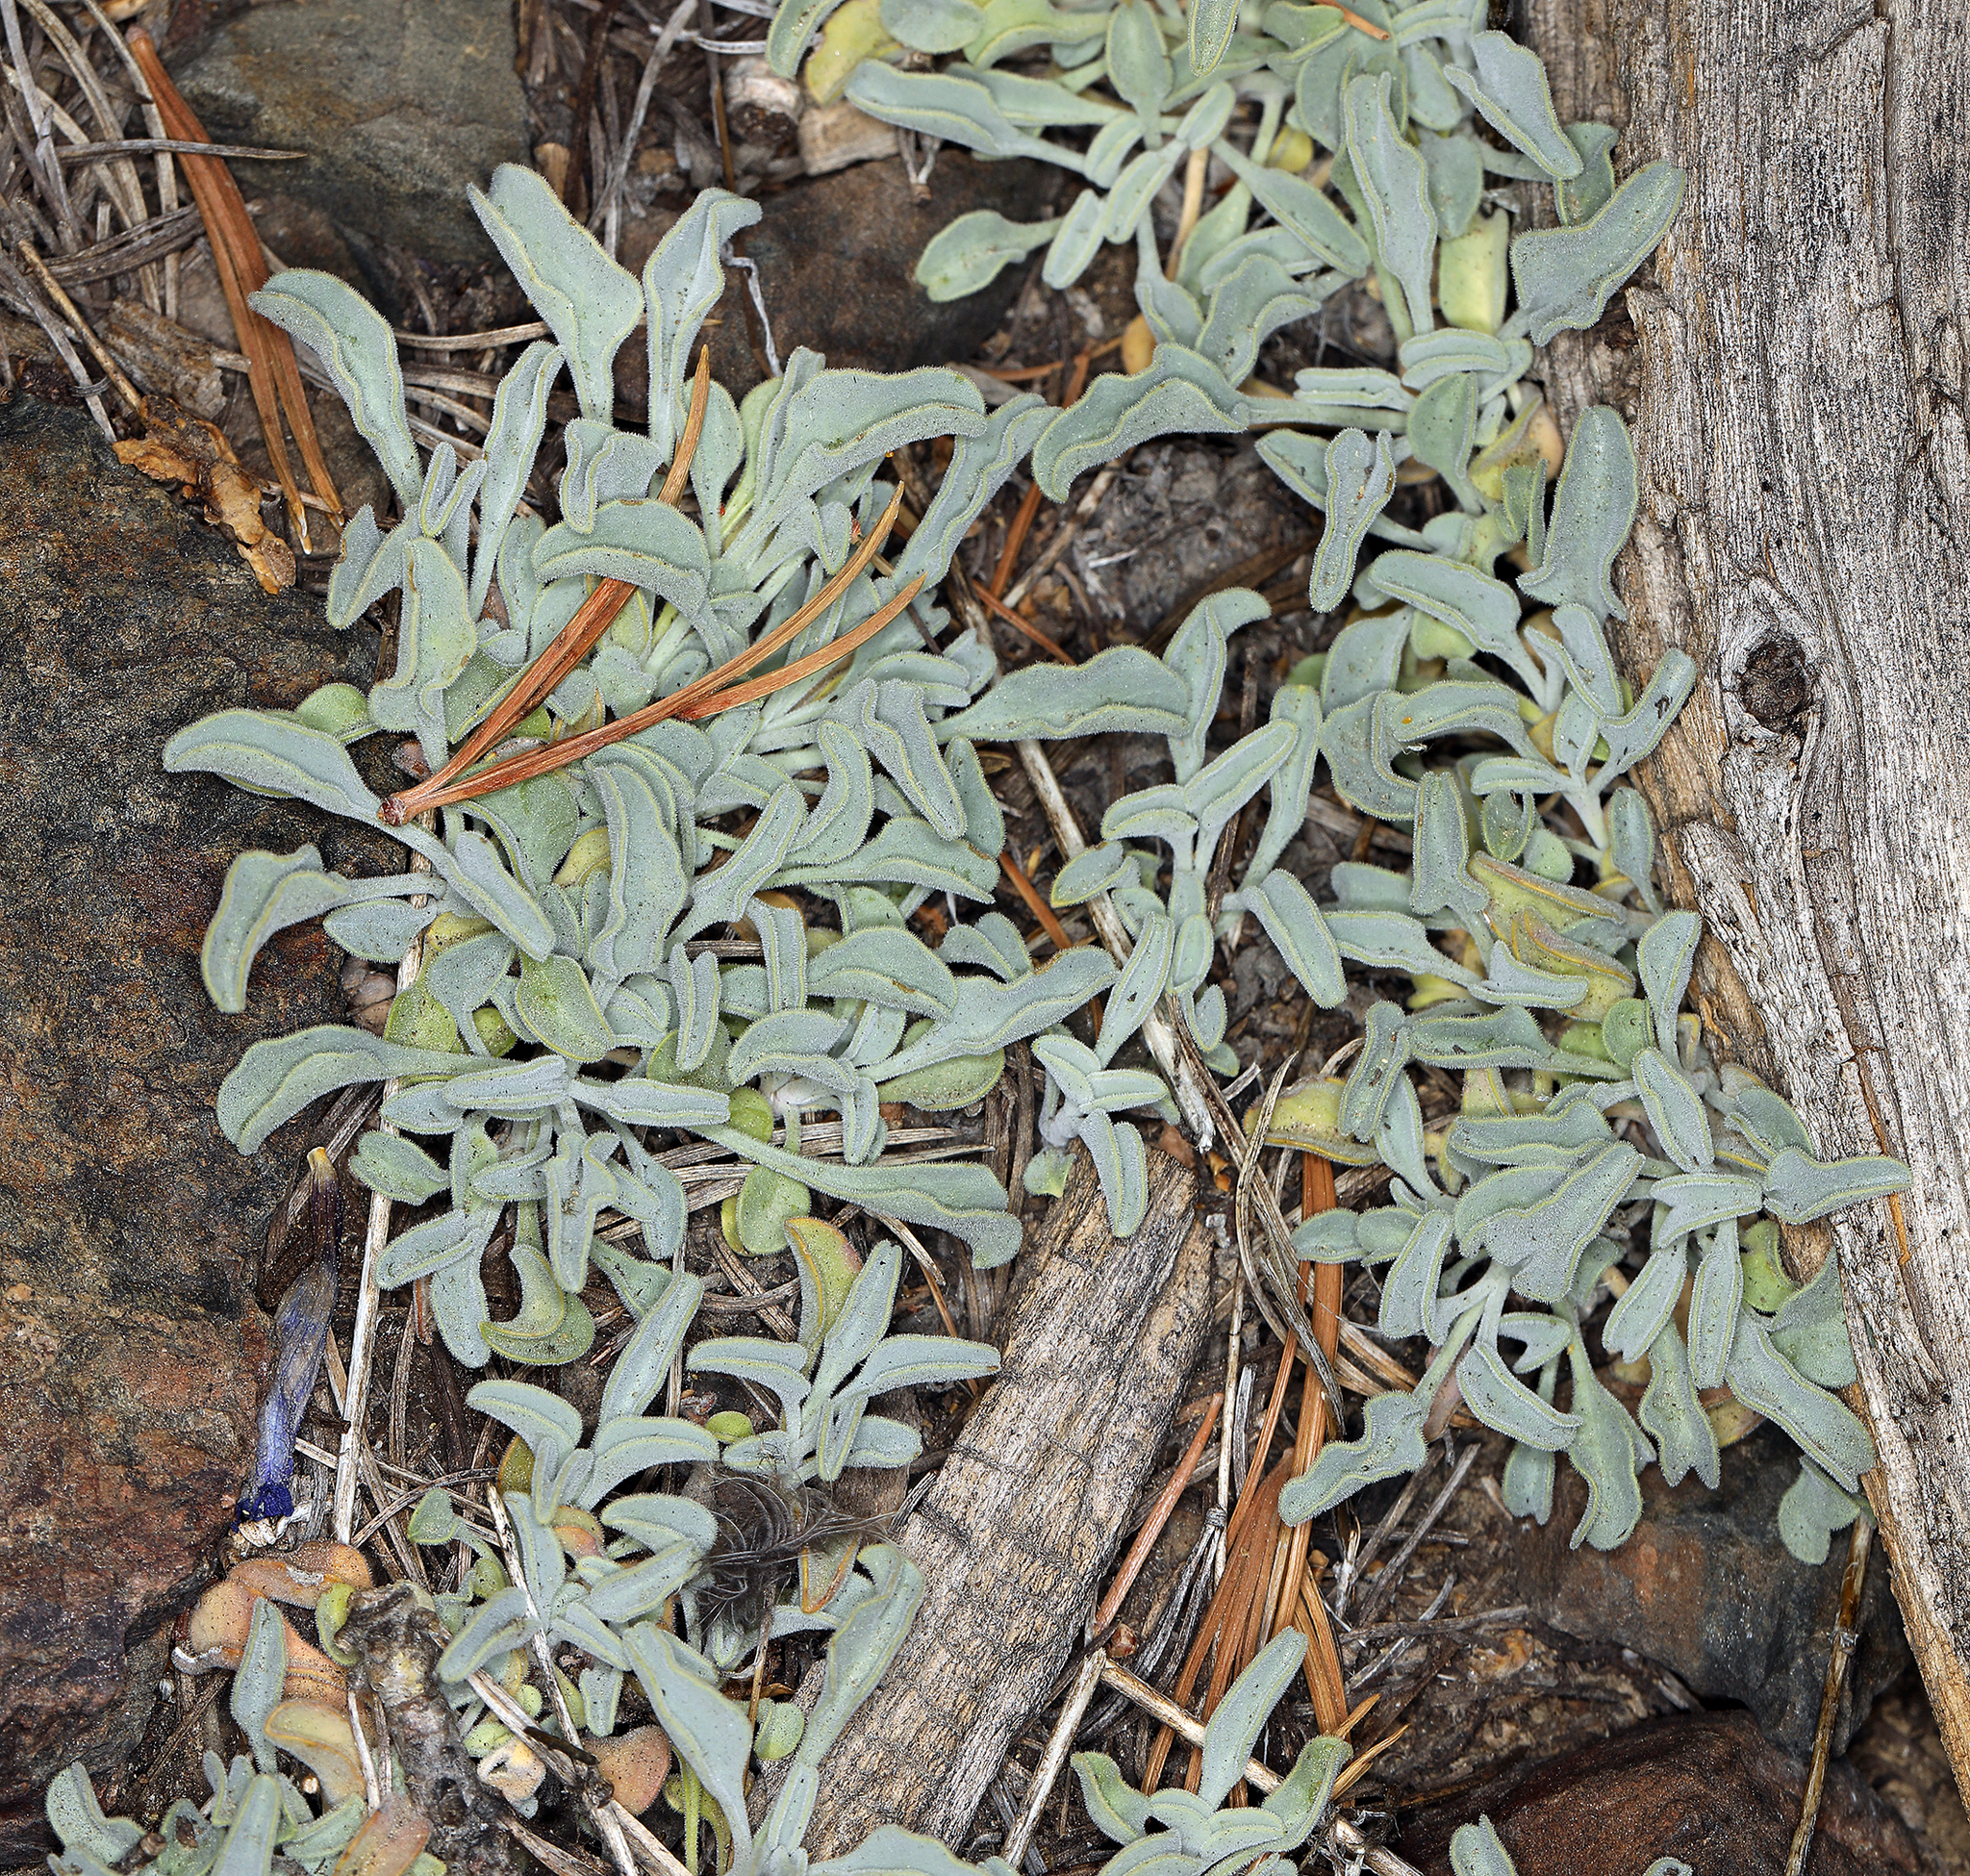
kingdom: Plantae
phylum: Tracheophyta
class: Magnoliopsida
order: Lamiales
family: Plantaginaceae
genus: Penstemon
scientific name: Penstemon scapoides
